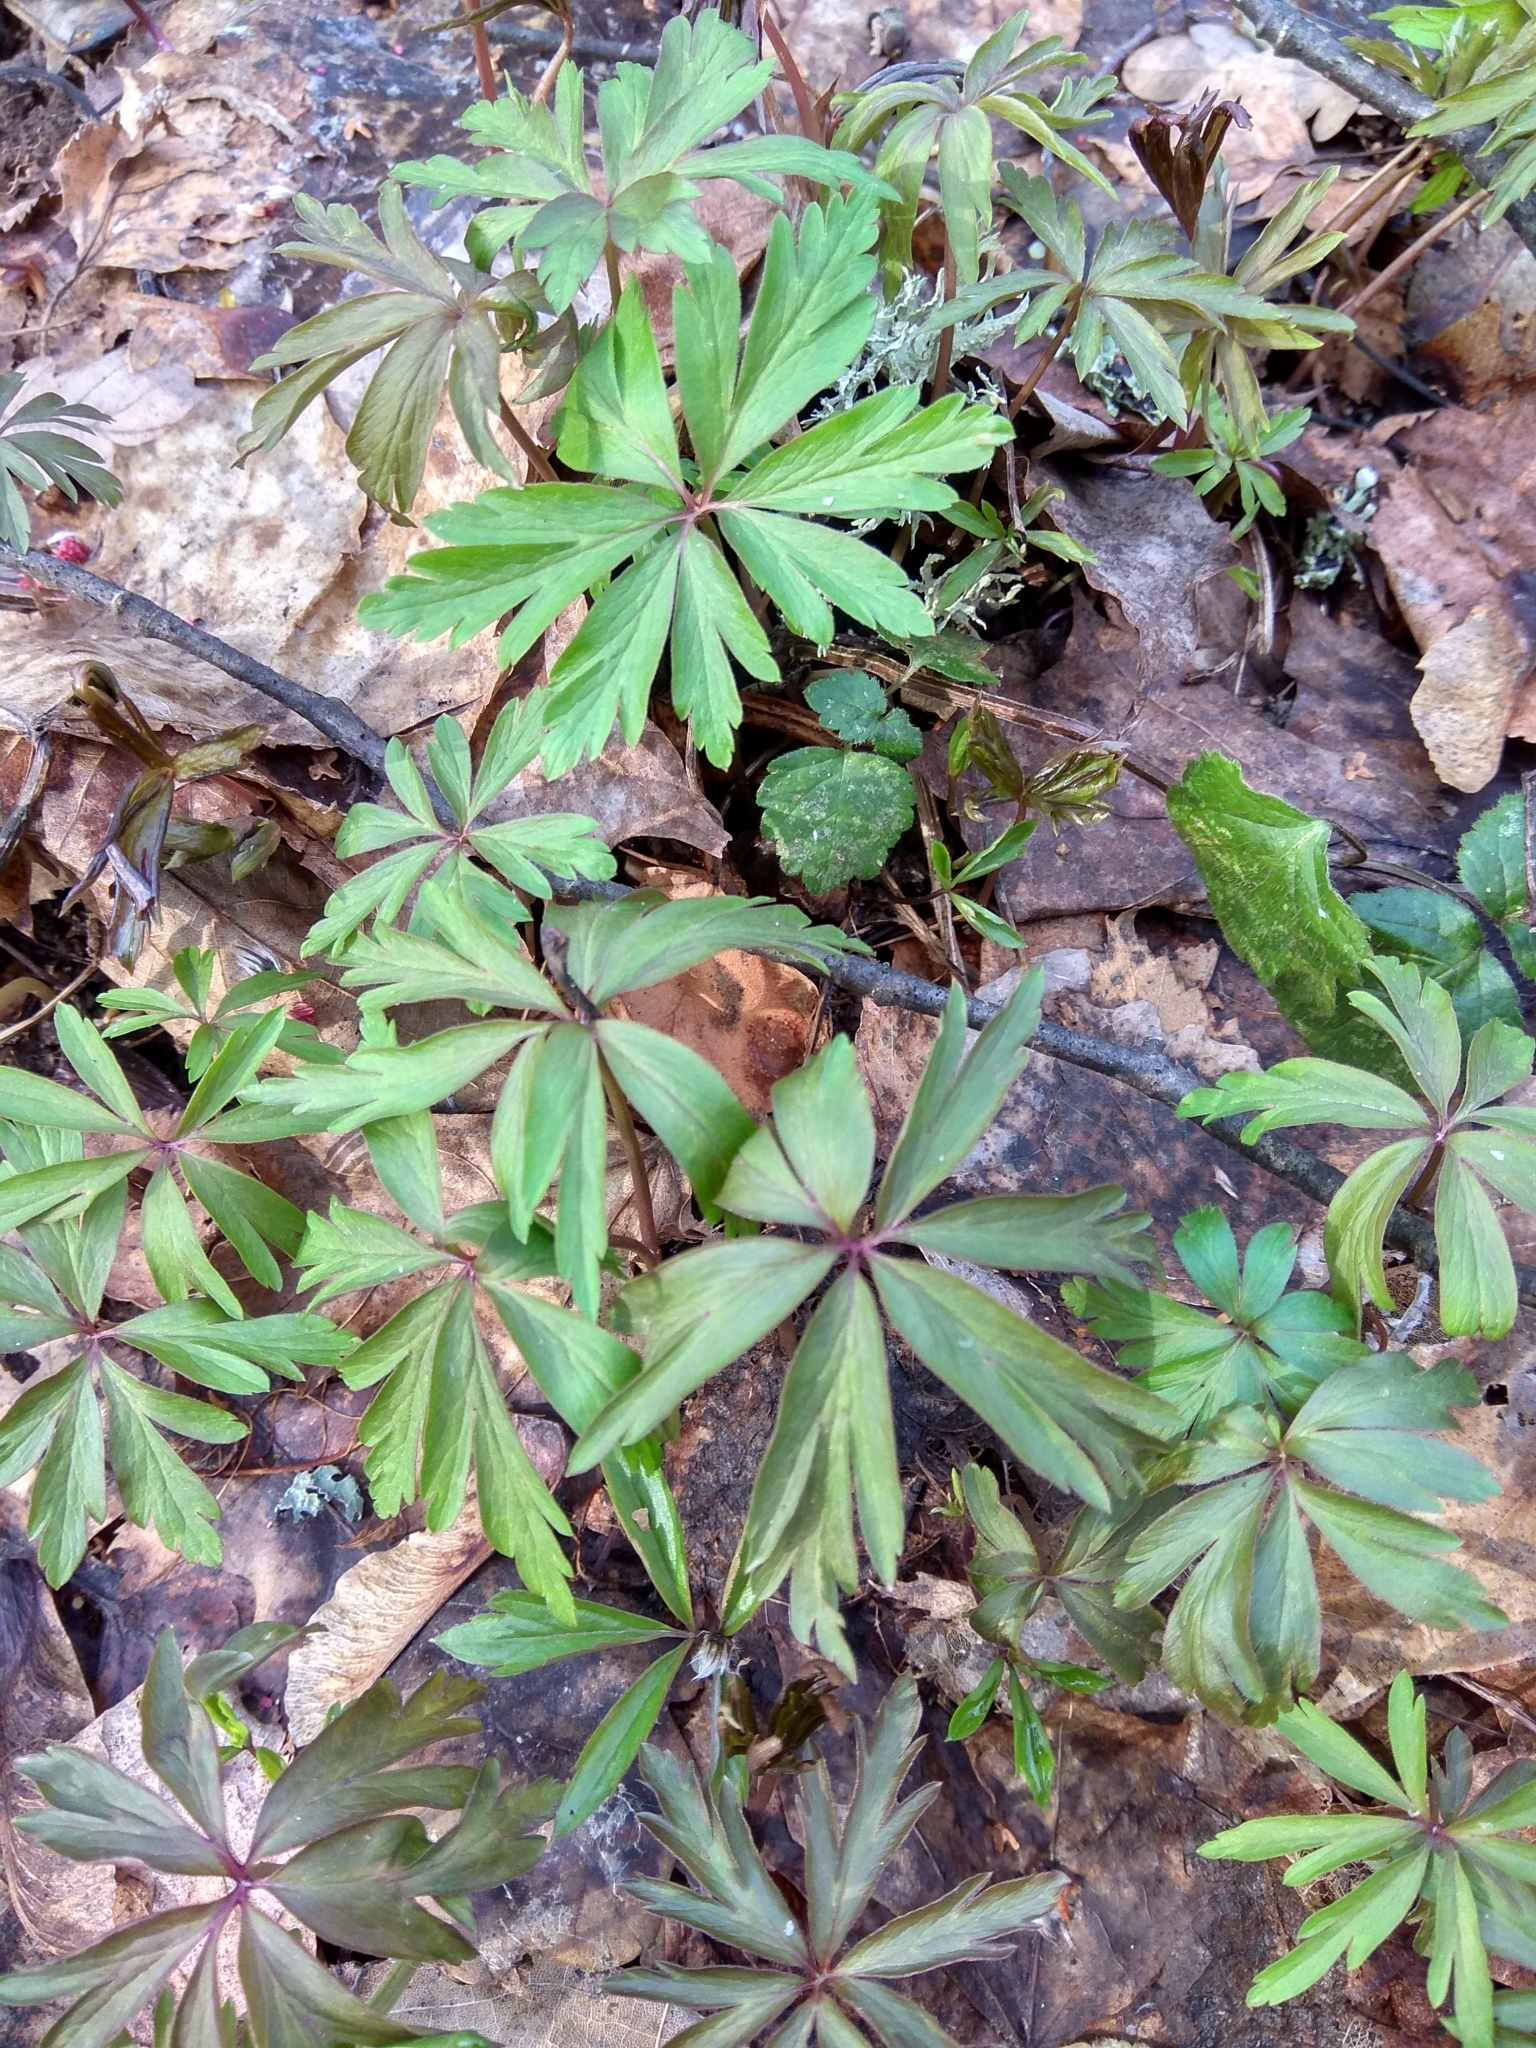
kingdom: Plantae
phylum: Tracheophyta
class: Magnoliopsida
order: Ranunculales
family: Ranunculaceae
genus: Anemone
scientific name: Anemone ranunculoides
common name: Yellow anemone
